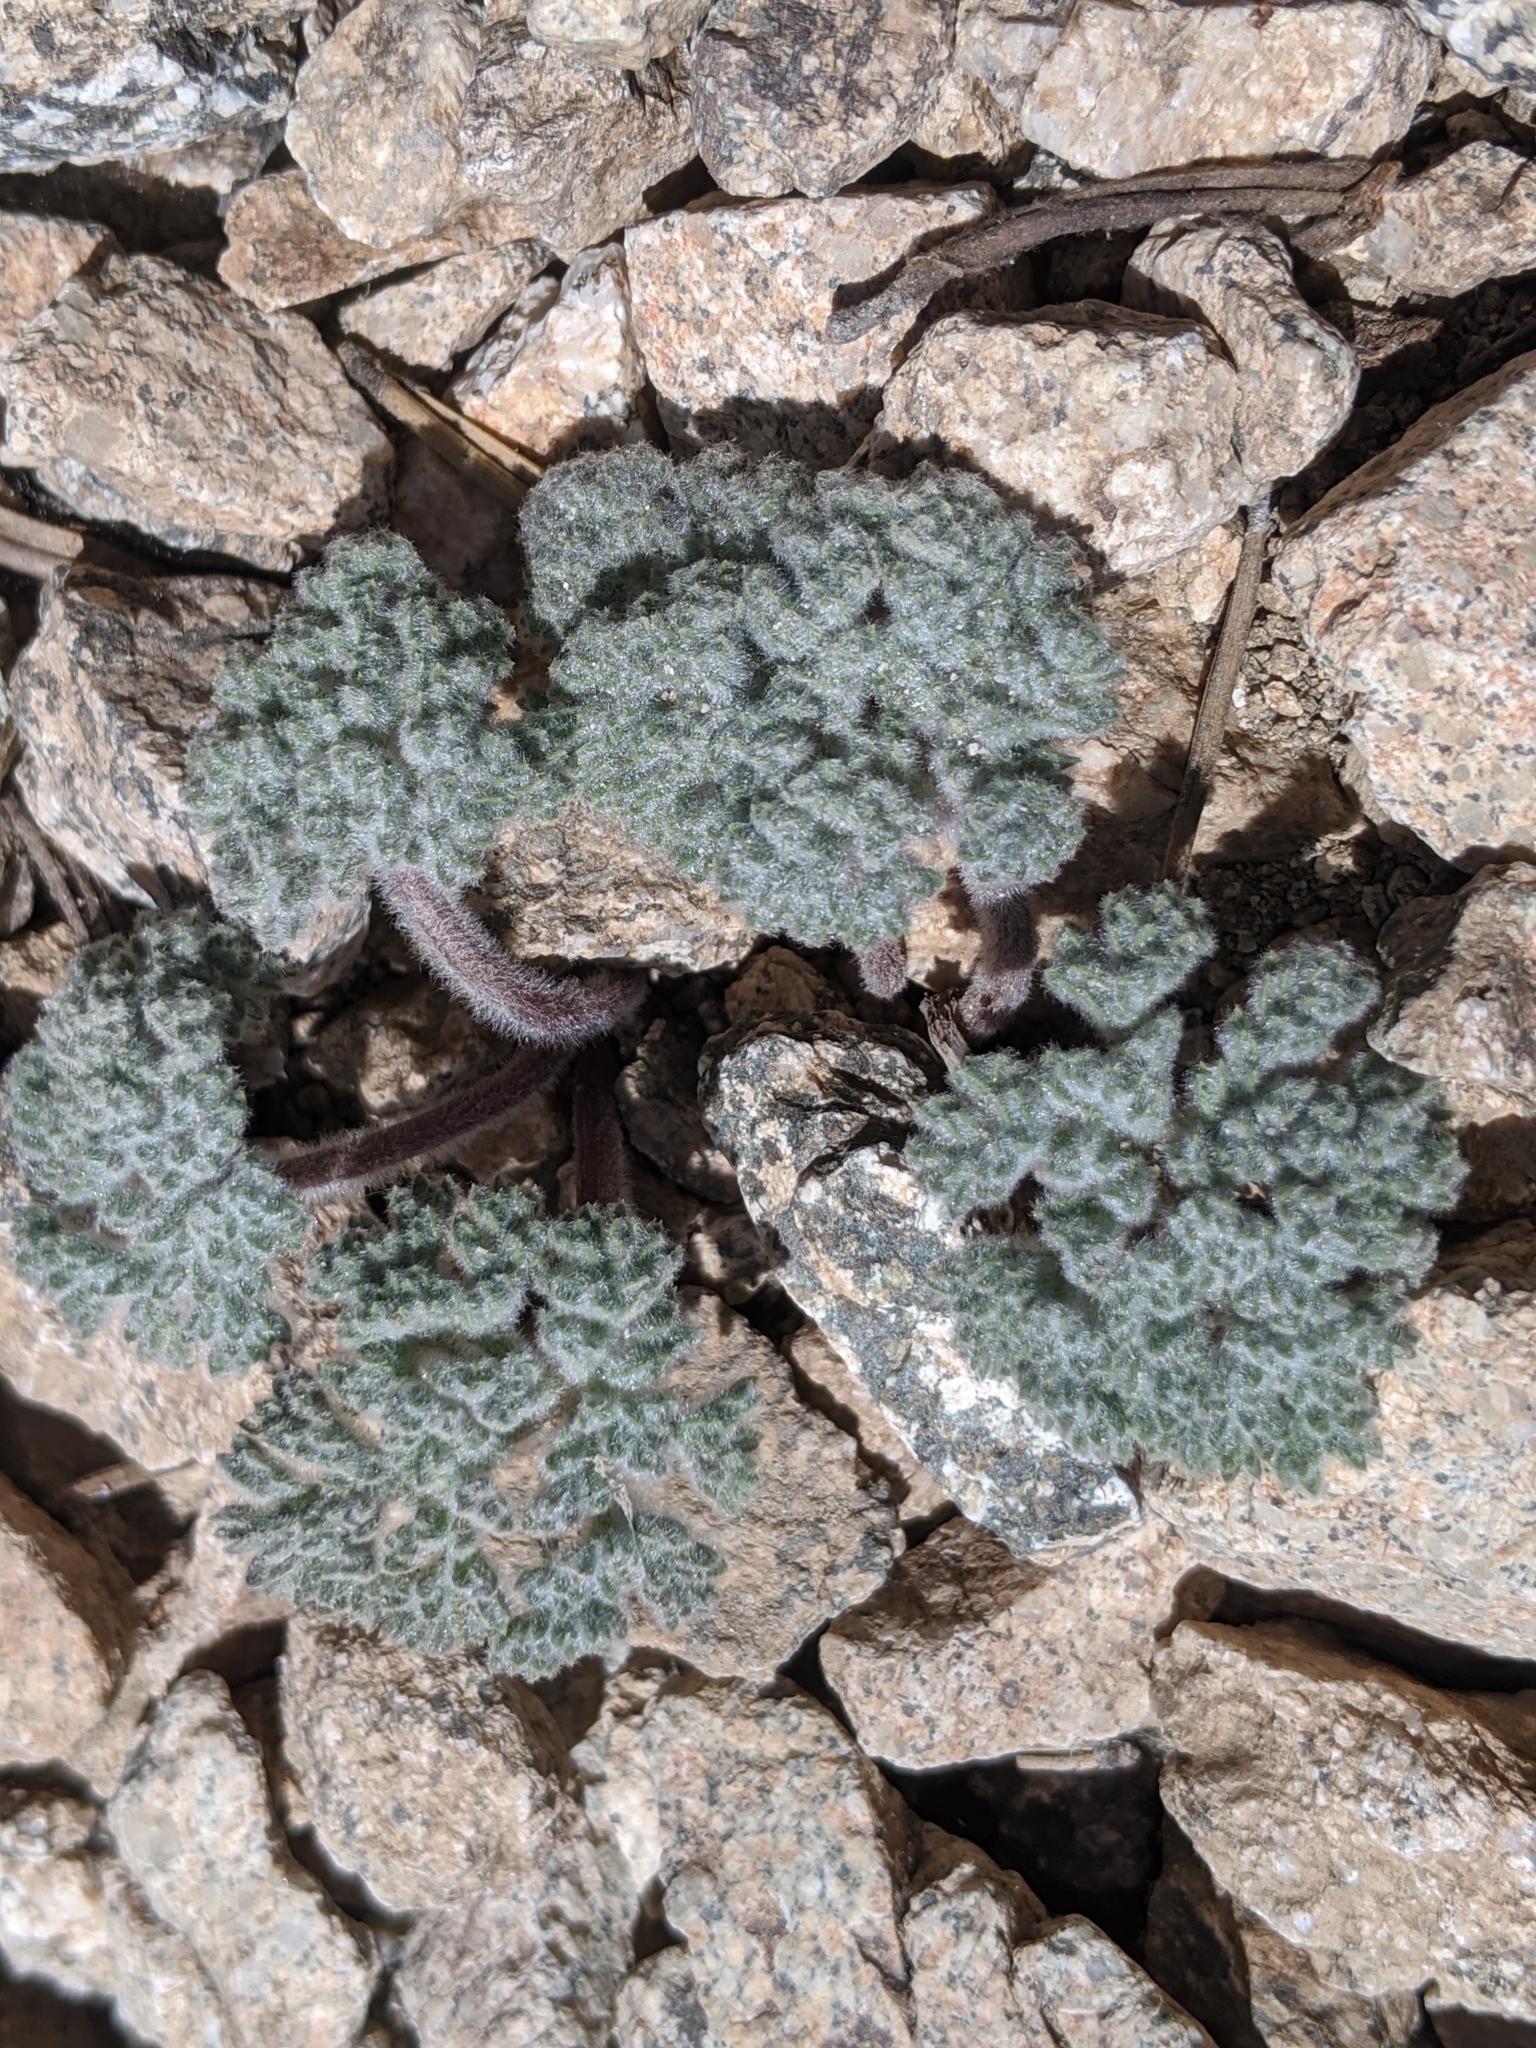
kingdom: Plantae
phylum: Tracheophyta
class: Magnoliopsida
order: Apiales
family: Apiaceae
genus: Oreonana
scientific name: Oreonana vestita
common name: Woolly mountain-parsley
